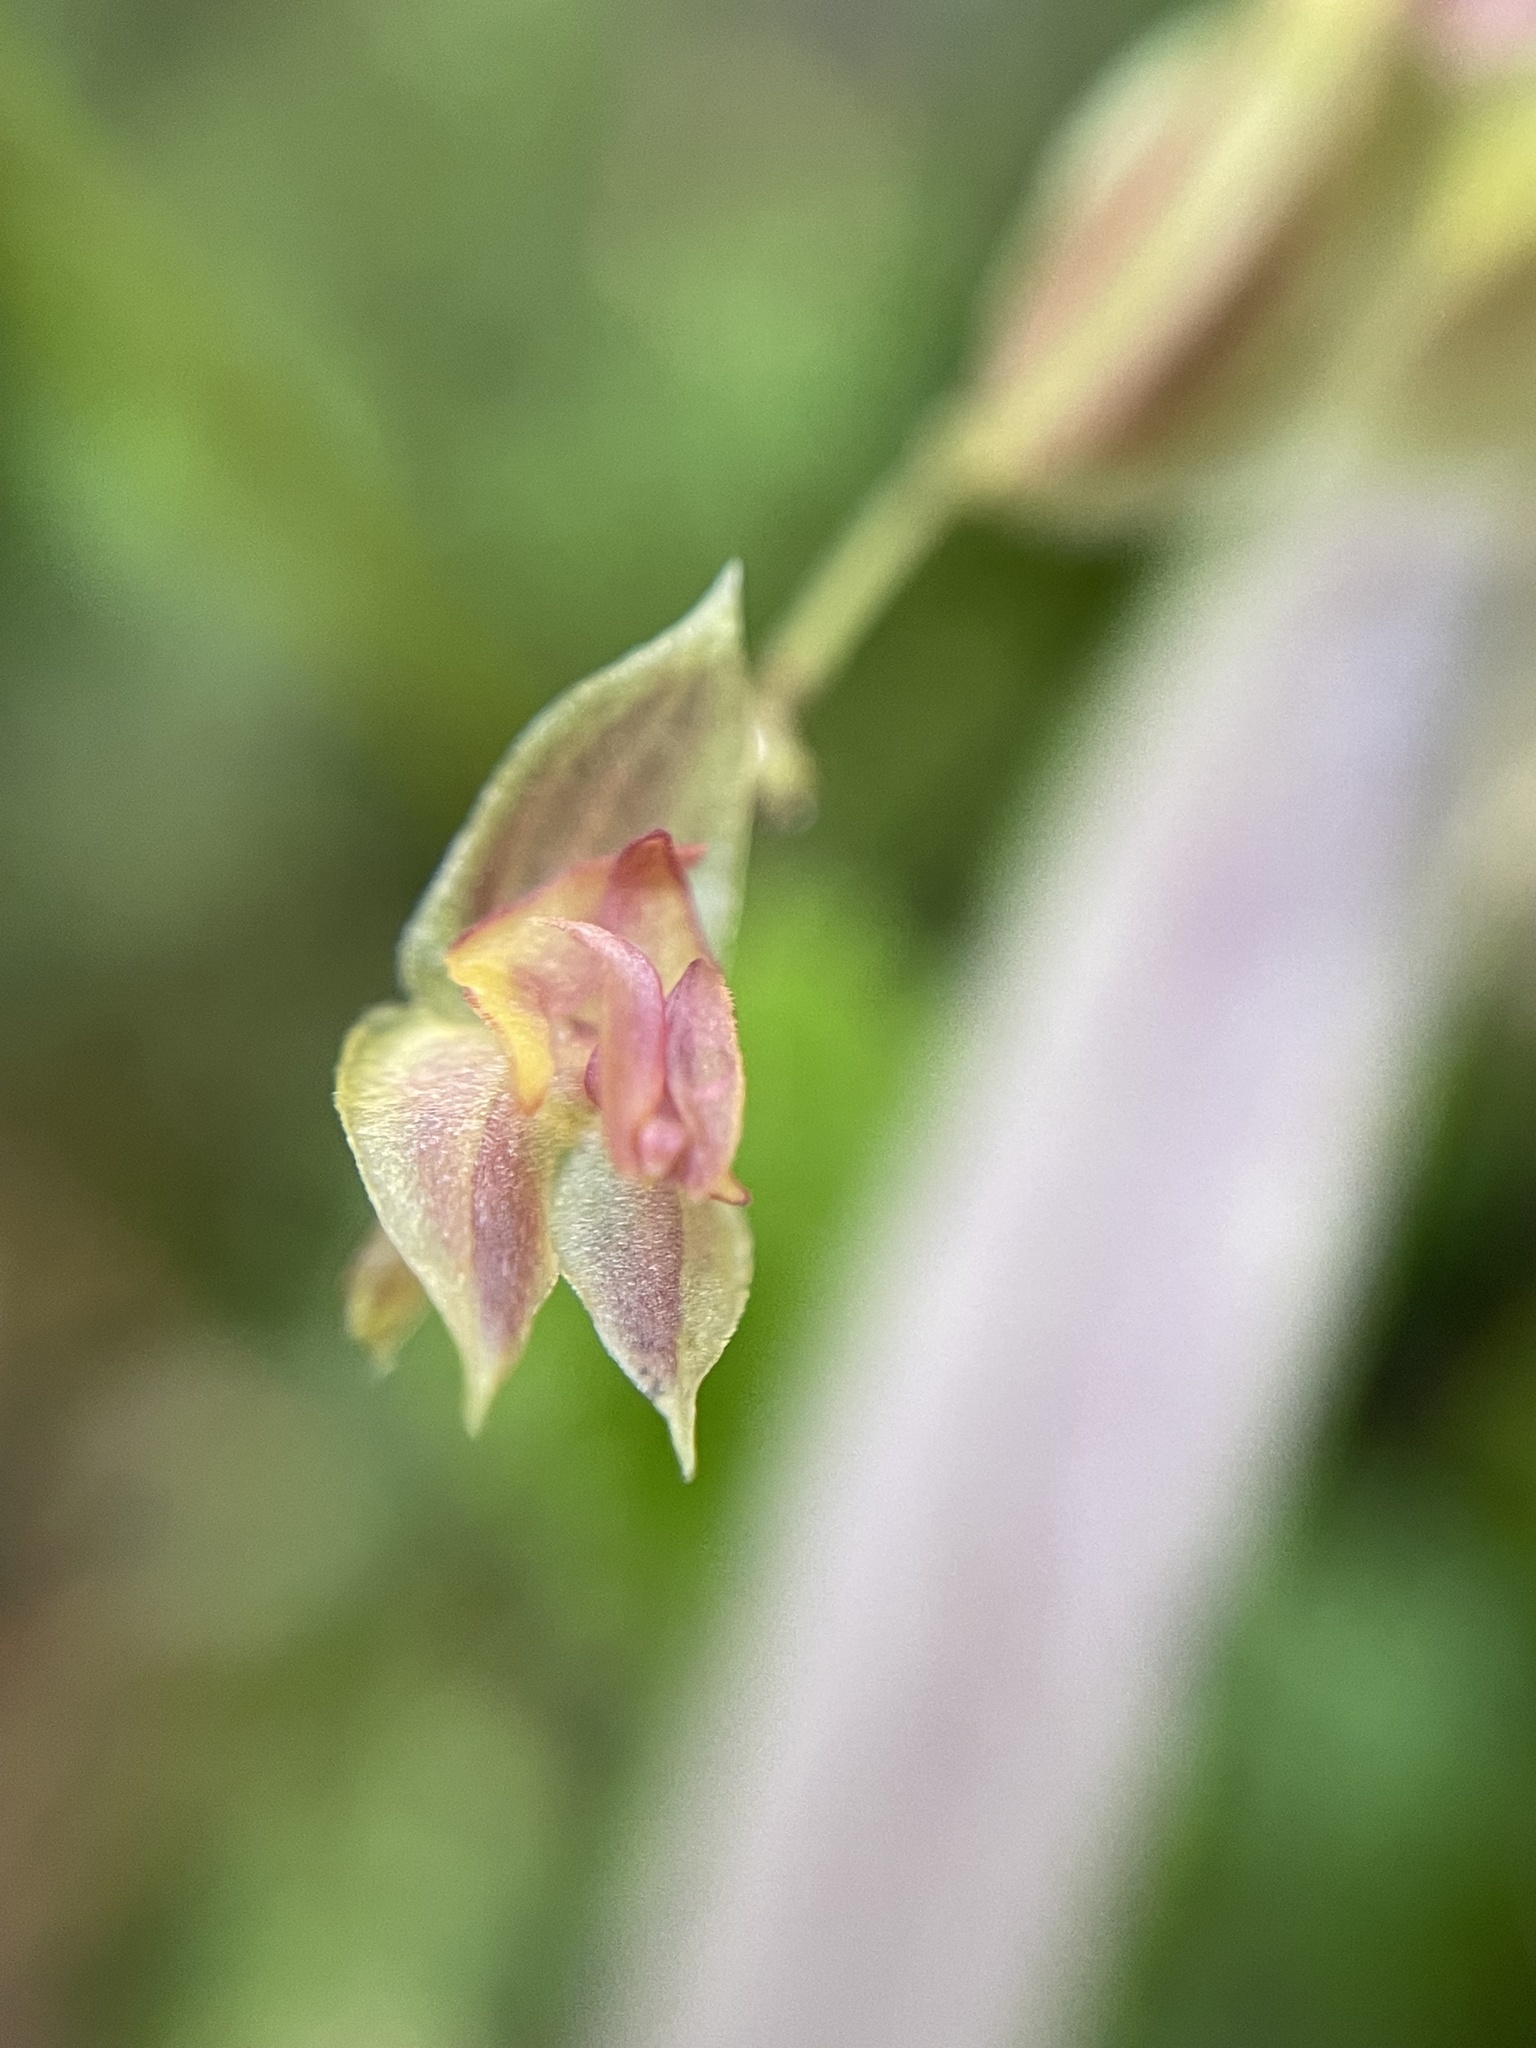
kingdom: Plantae
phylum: Tracheophyta
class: Liliopsida
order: Asparagales
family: Orchidaceae
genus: Lepanthes
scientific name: Lepanthes monoptera
